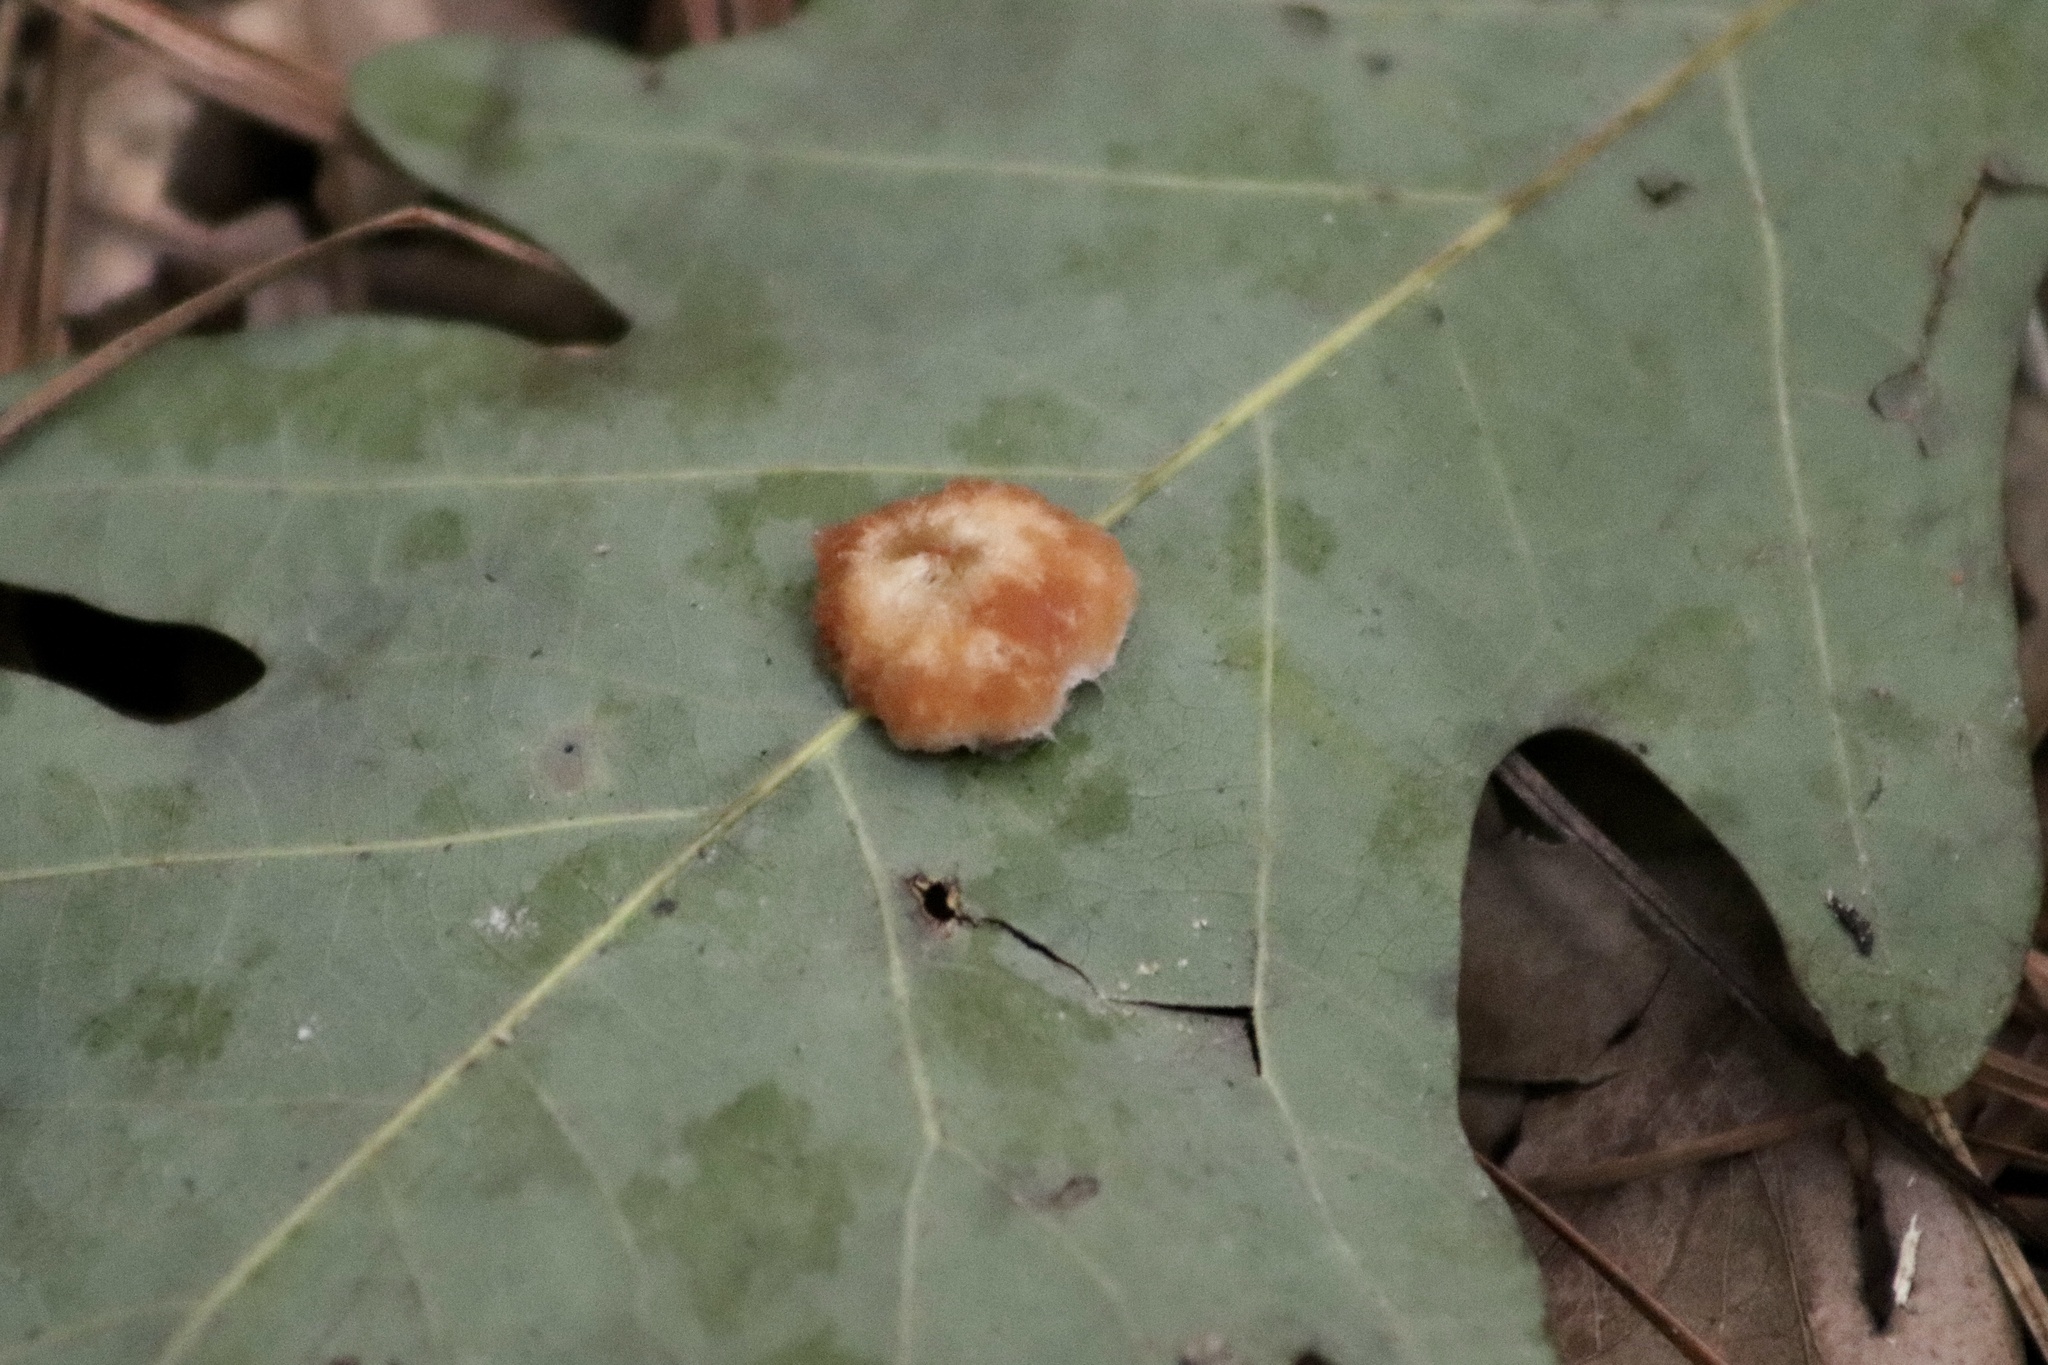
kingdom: Animalia
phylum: Arthropoda
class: Insecta
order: Hymenoptera
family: Cynipidae
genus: Andricus
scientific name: Andricus quercusflocci
